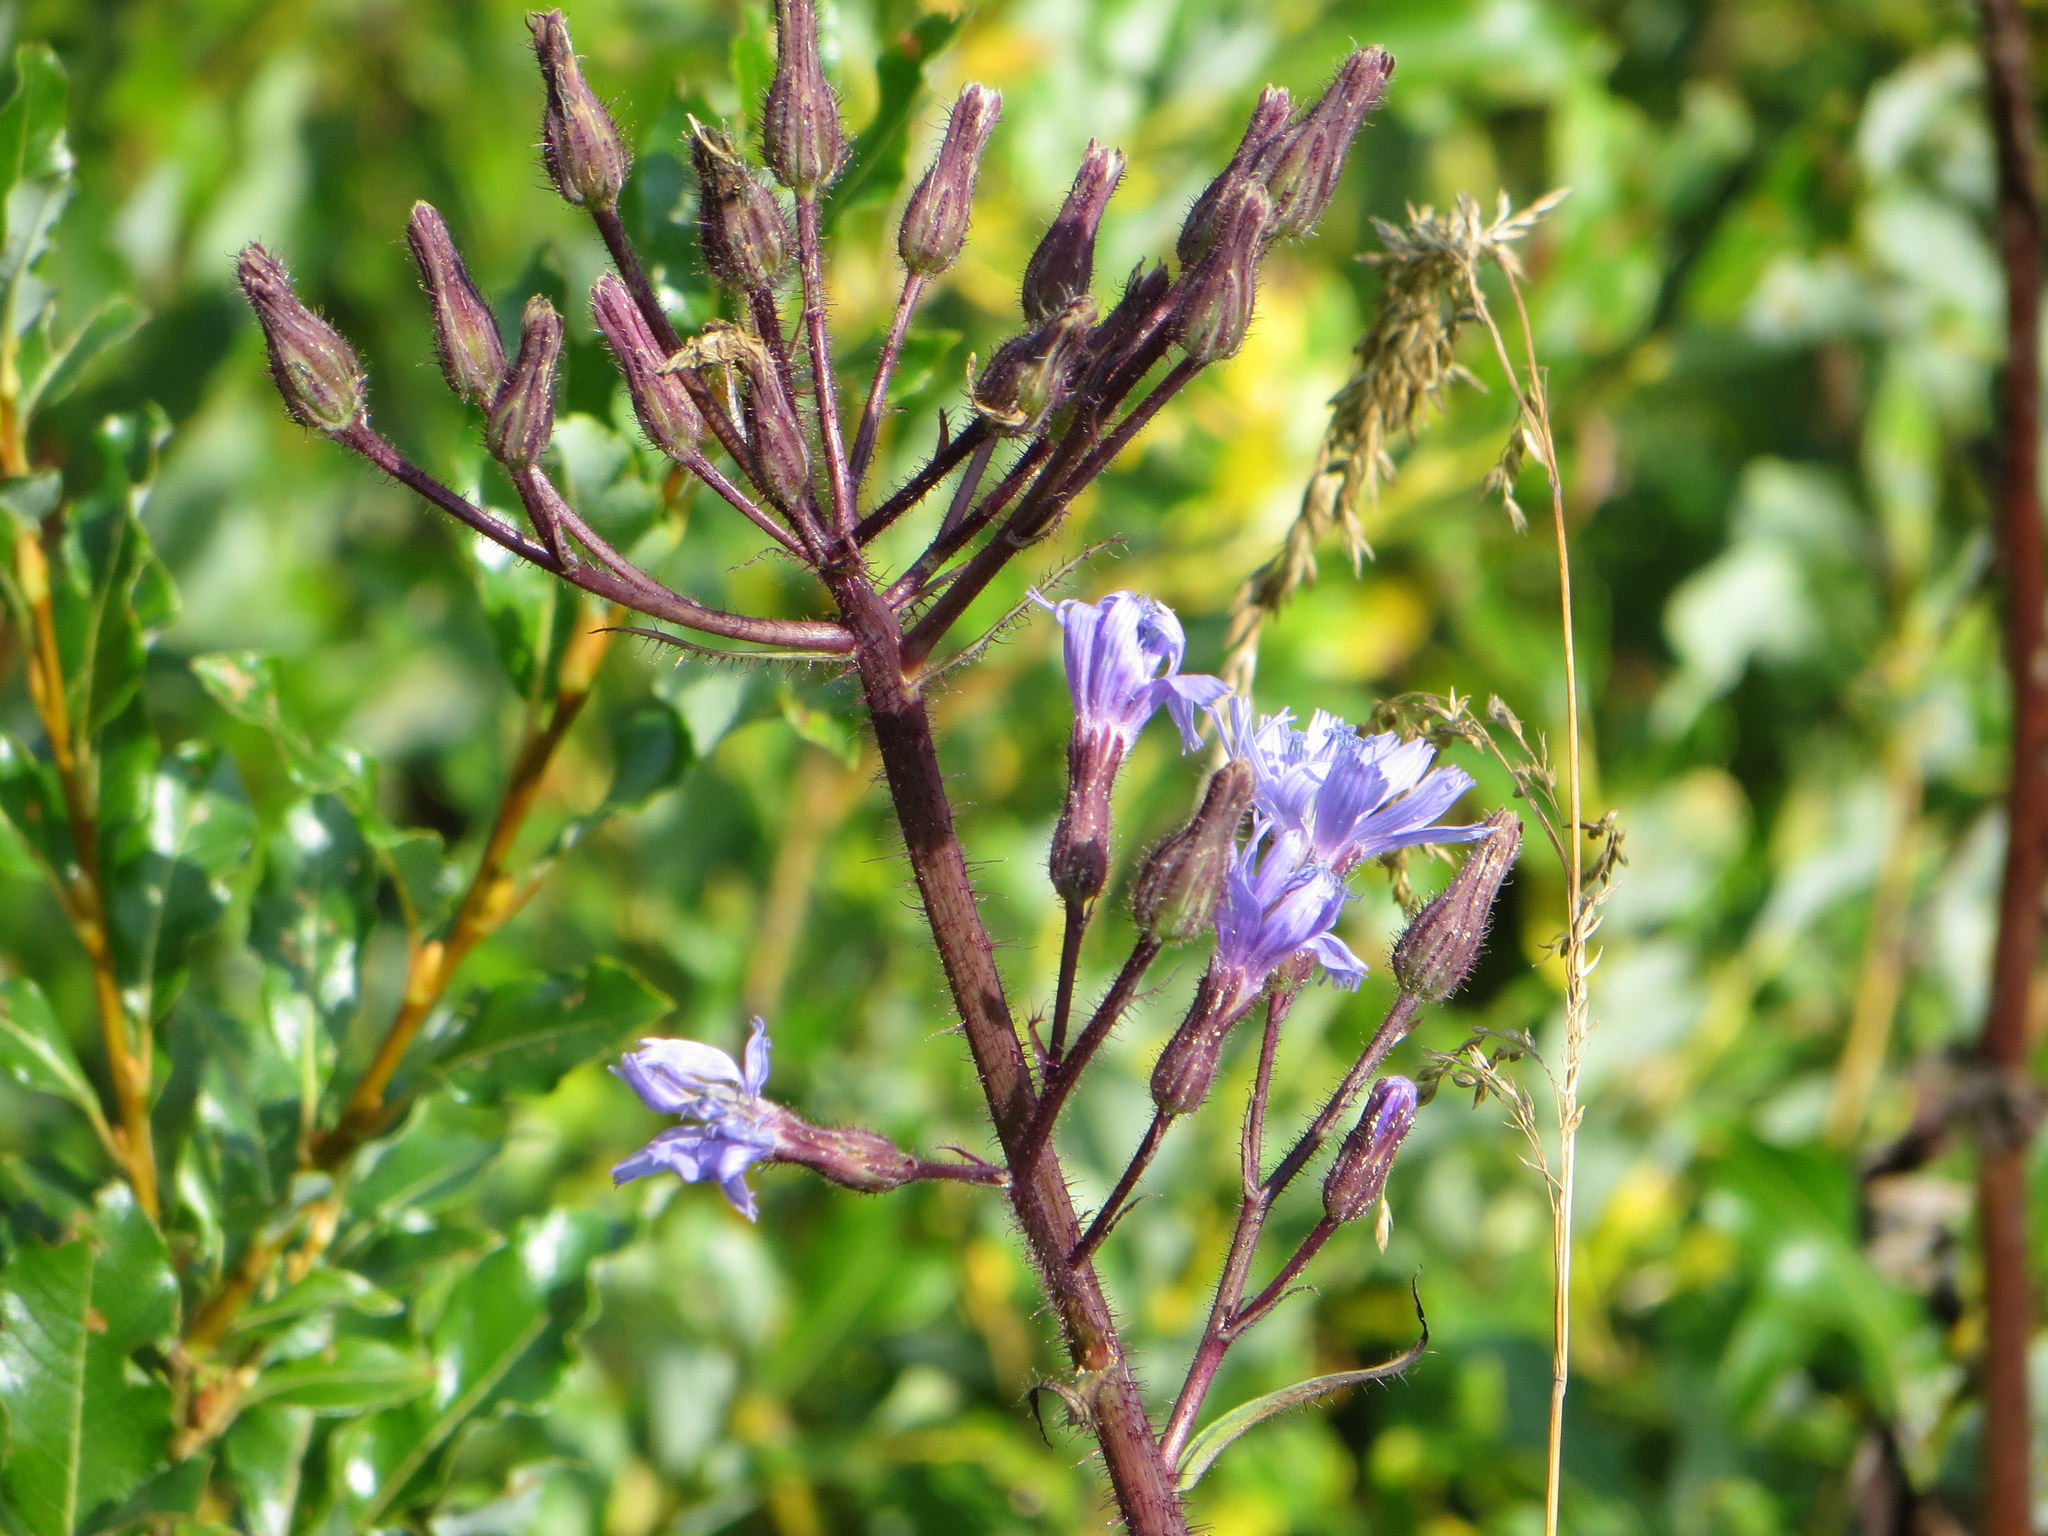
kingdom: Plantae
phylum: Tracheophyta
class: Magnoliopsida
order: Asterales
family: Asteraceae
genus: Cicerbita
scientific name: Cicerbita alpina
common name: Alpine blue-sow-thistle
